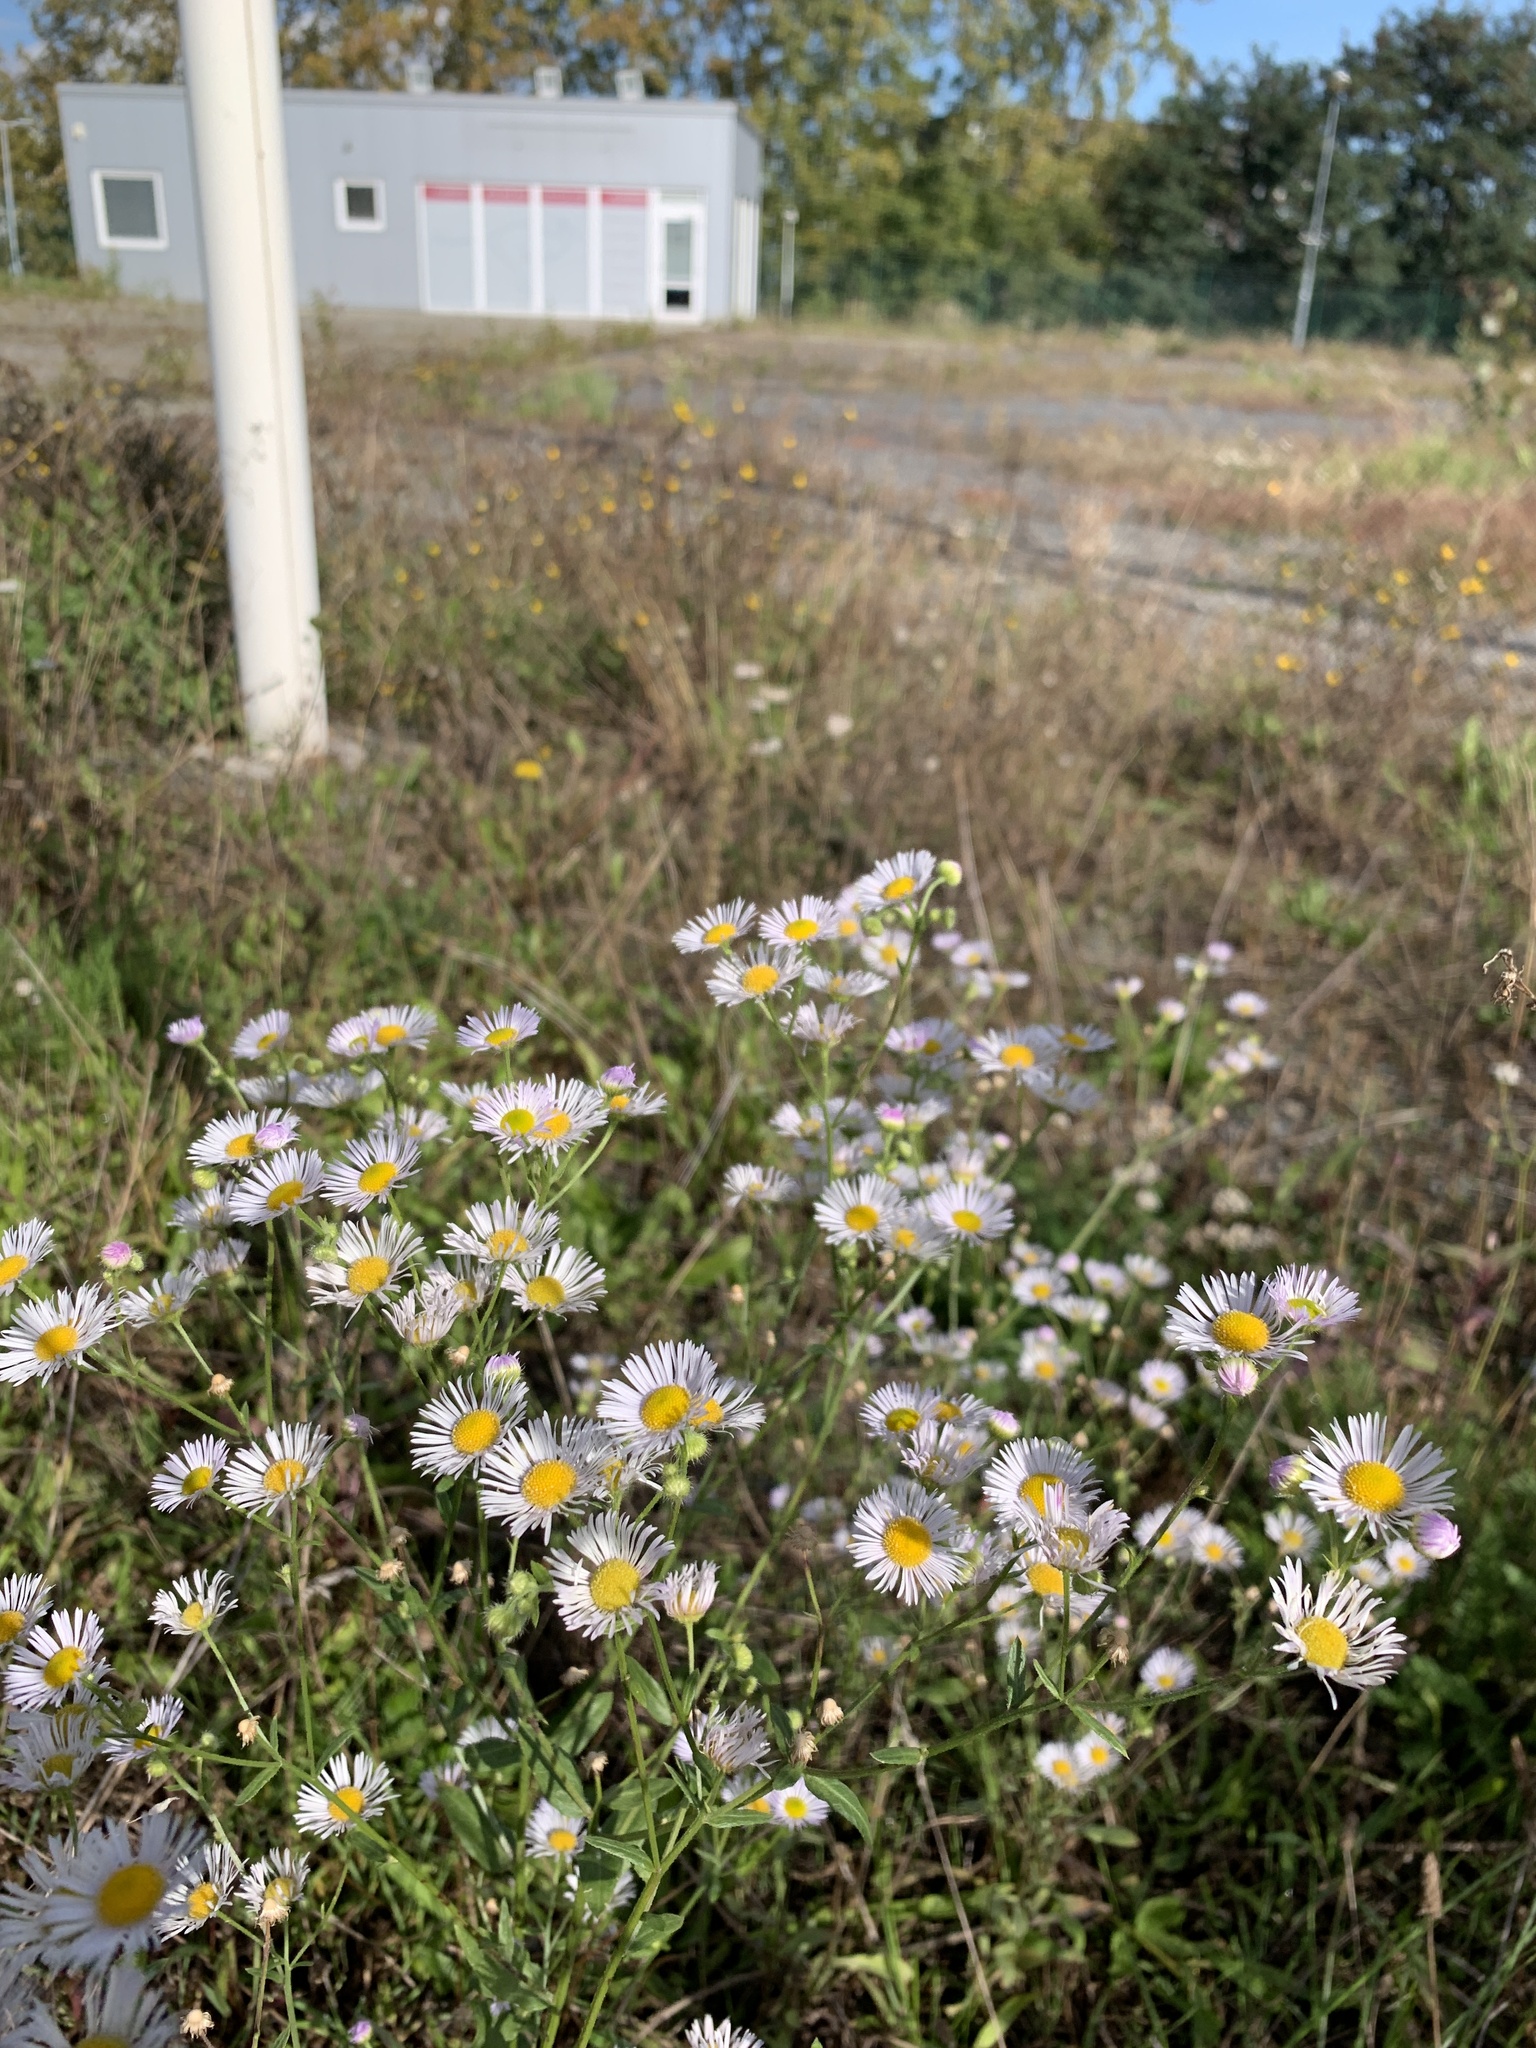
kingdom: Plantae
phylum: Tracheophyta
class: Magnoliopsida
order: Asterales
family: Asteraceae
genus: Erigeron
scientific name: Erigeron annuus
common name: Tall fleabane
